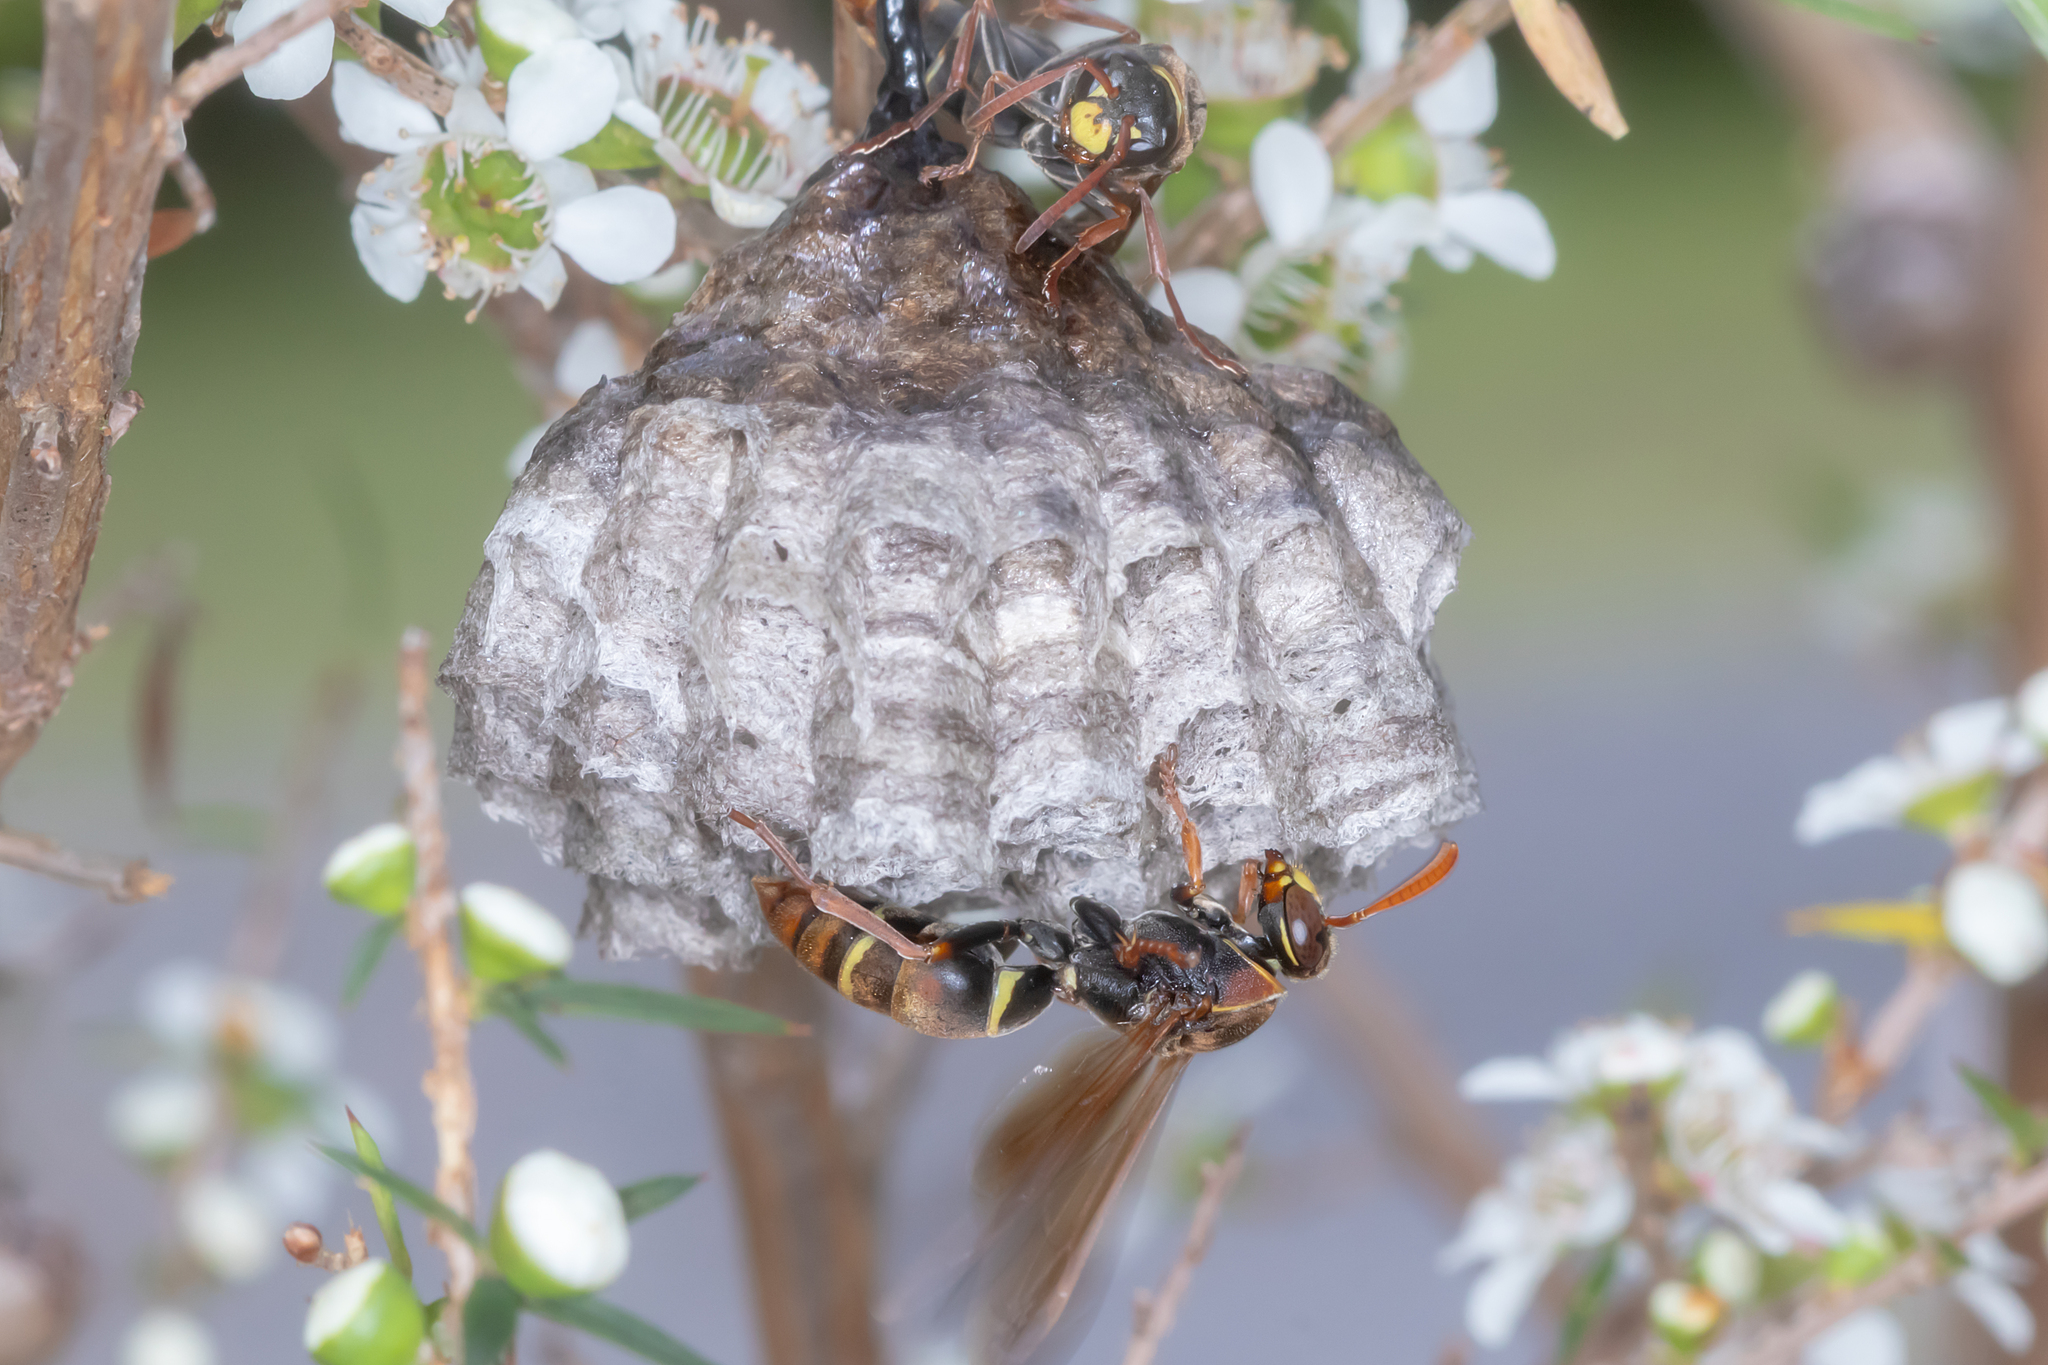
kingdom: Animalia
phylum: Arthropoda
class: Insecta
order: Hymenoptera
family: Eumenidae
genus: Polistes
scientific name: Polistes humilis
